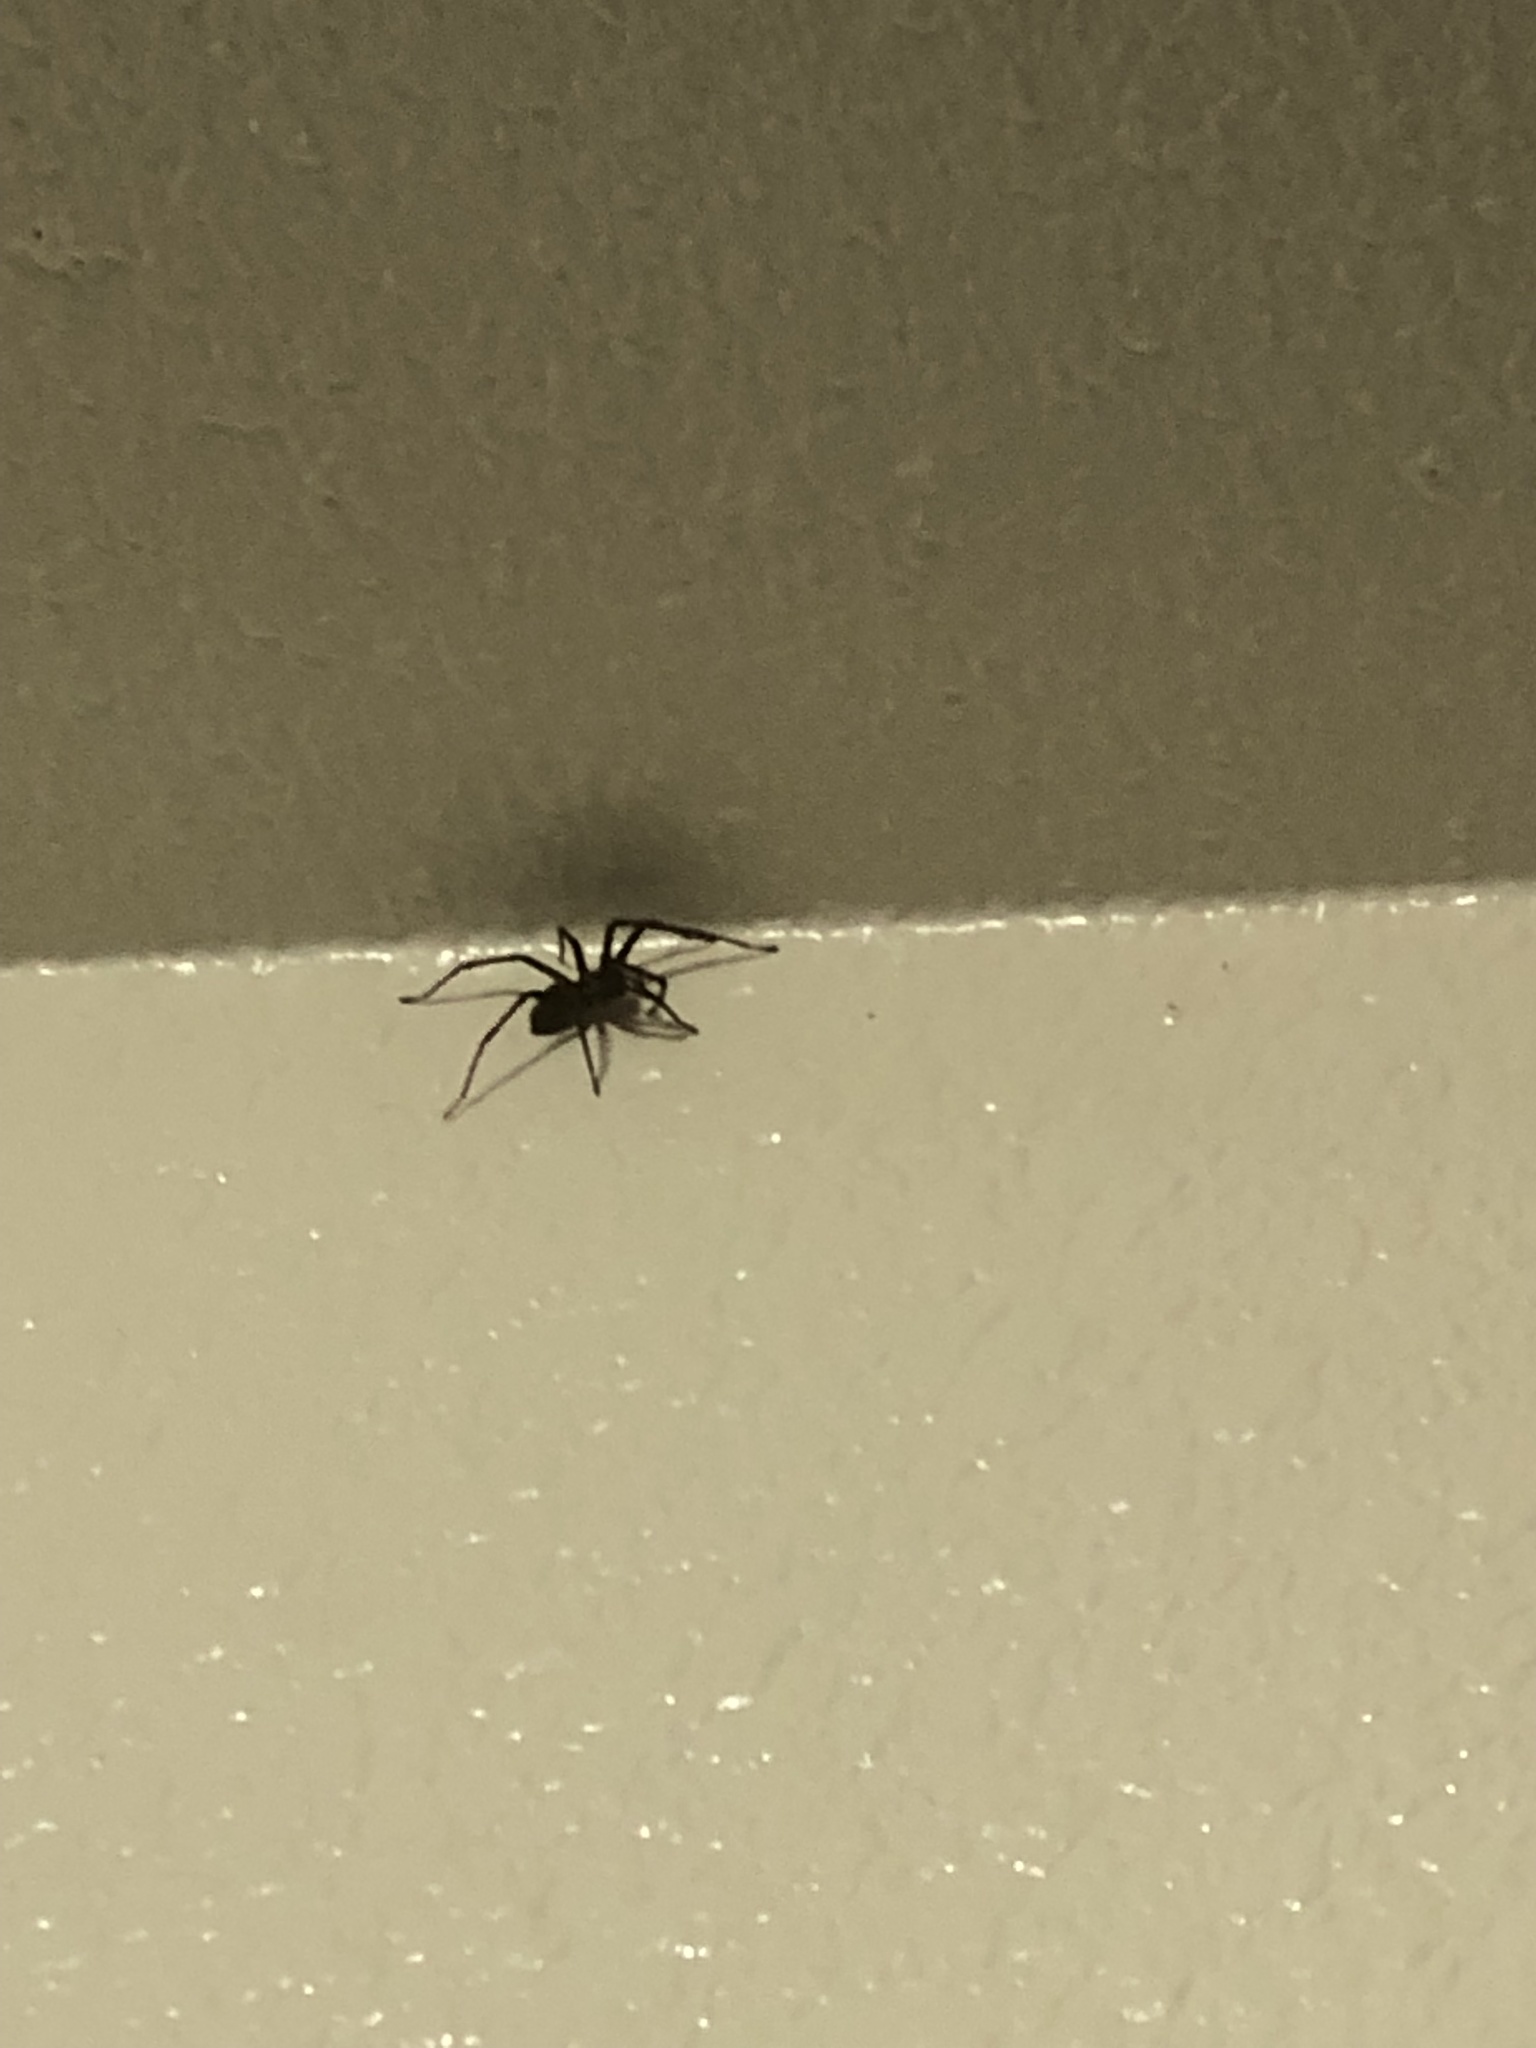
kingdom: Animalia
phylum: Arthropoda
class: Arachnida
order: Araneae
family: Agelenidae
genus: Eratigena
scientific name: Eratigena duellica
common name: Giant house spider
